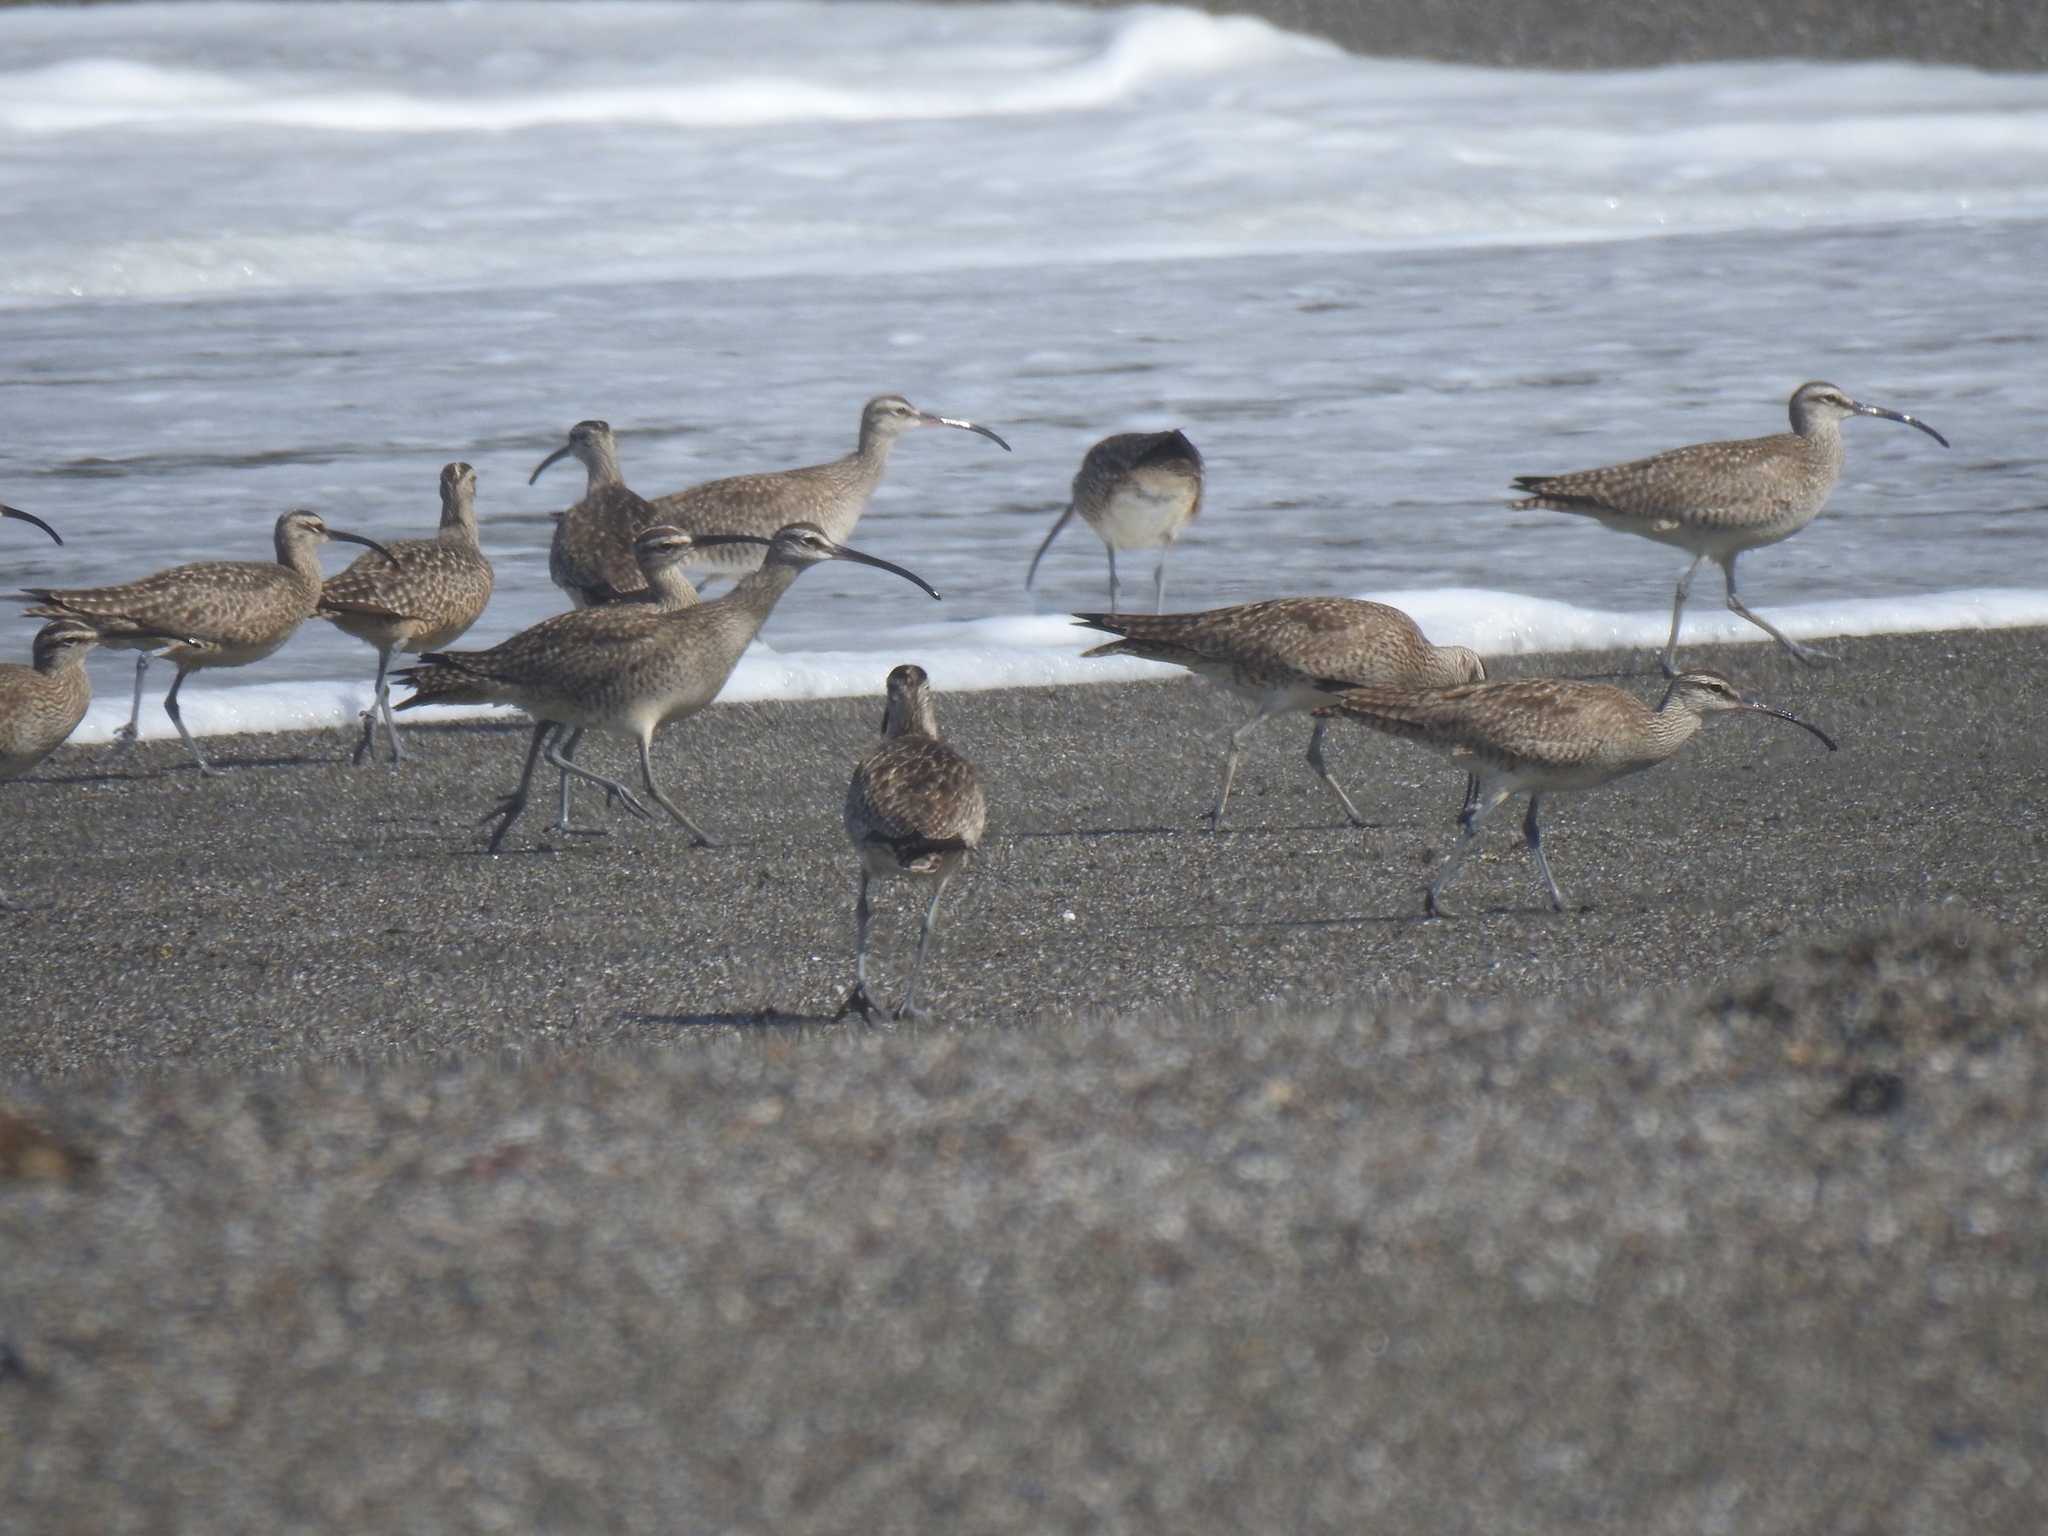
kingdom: Animalia
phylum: Chordata
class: Aves
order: Charadriiformes
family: Scolopacidae
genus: Numenius
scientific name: Numenius phaeopus
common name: Whimbrel
